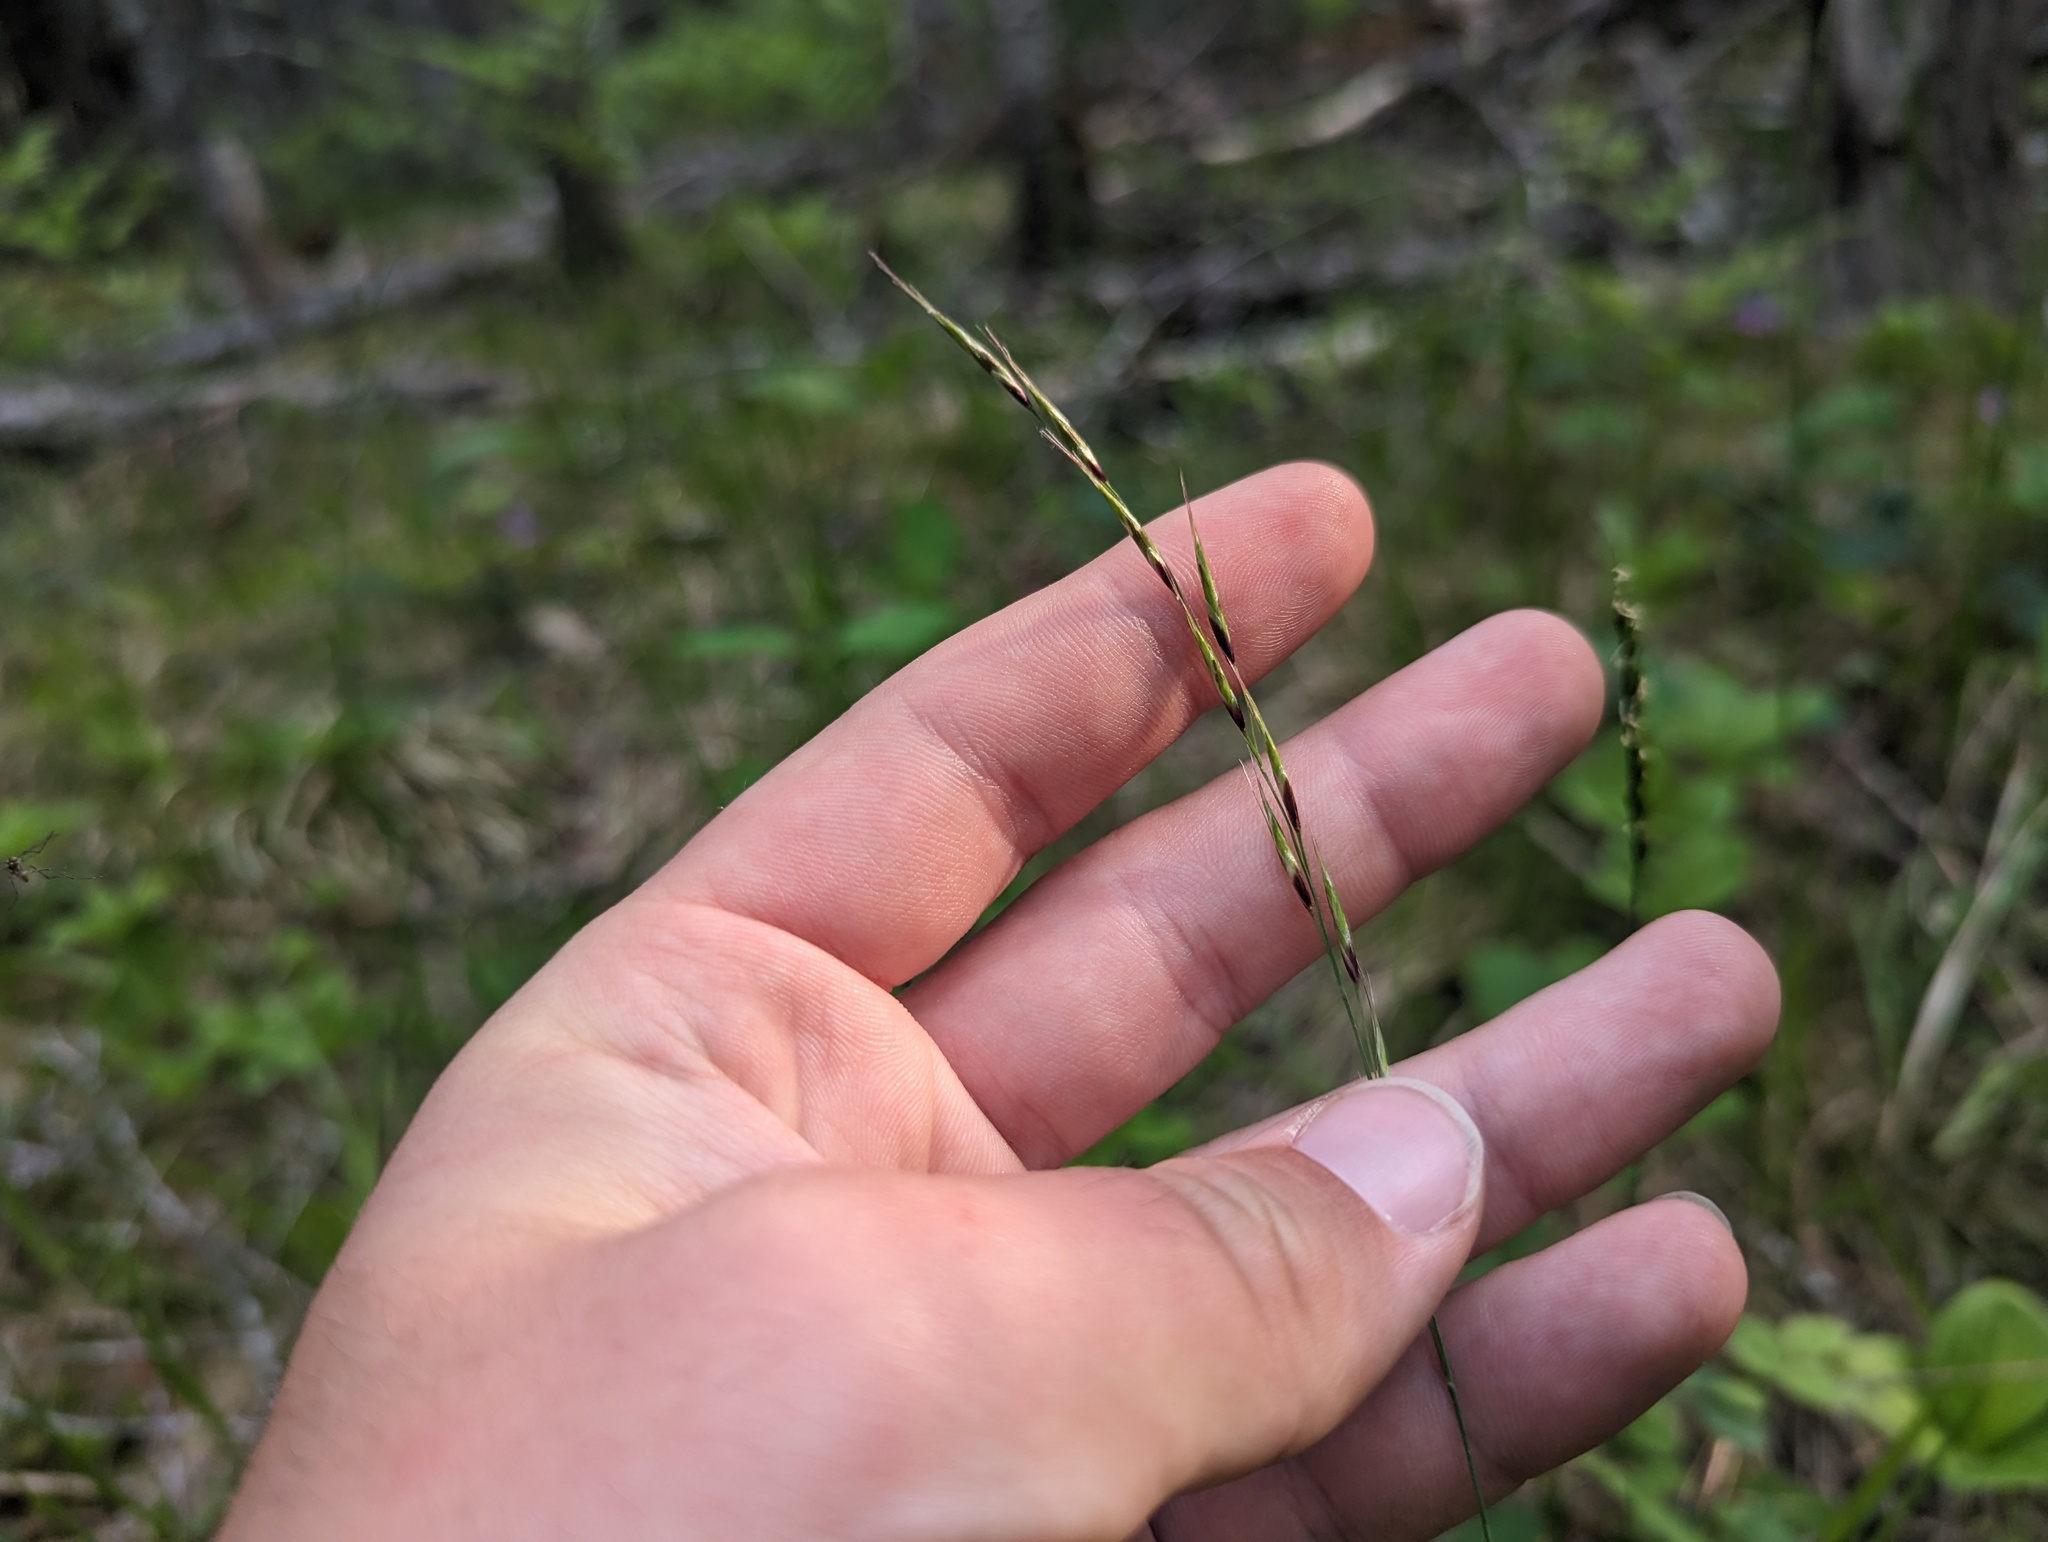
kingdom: Plantae
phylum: Tracheophyta
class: Liliopsida
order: Poales
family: Poaceae
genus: Schizachne
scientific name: Schizachne purpurascens
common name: False melic
